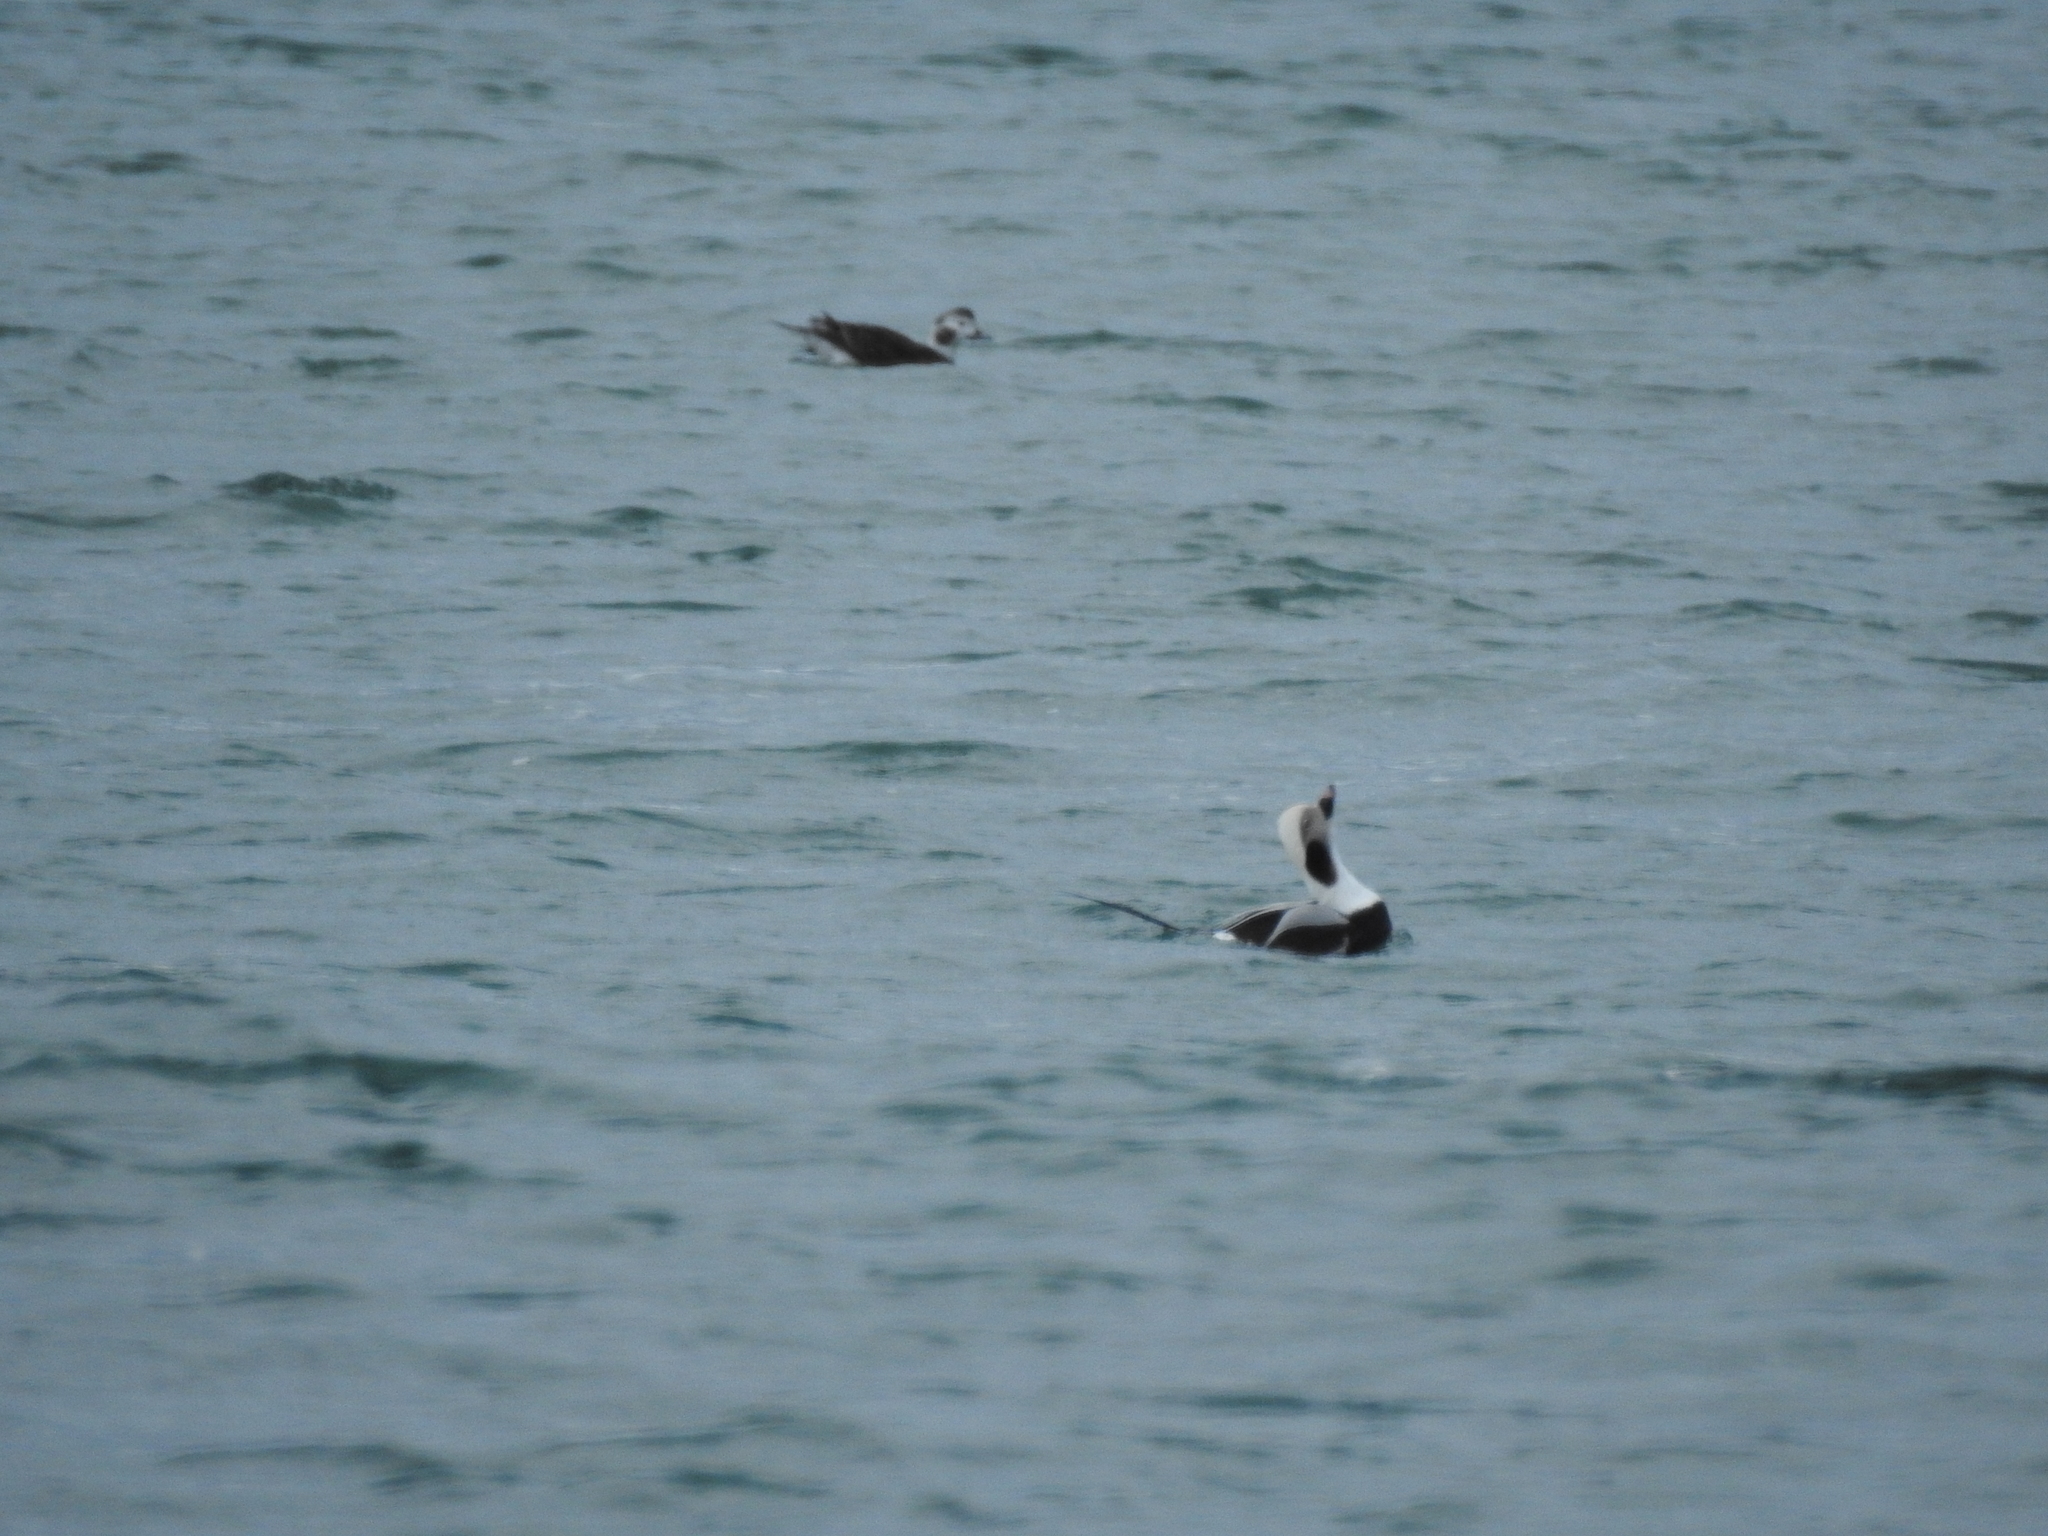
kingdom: Animalia
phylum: Chordata
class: Aves
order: Anseriformes
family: Anatidae
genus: Clangula
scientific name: Clangula hyemalis
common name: Long-tailed duck
